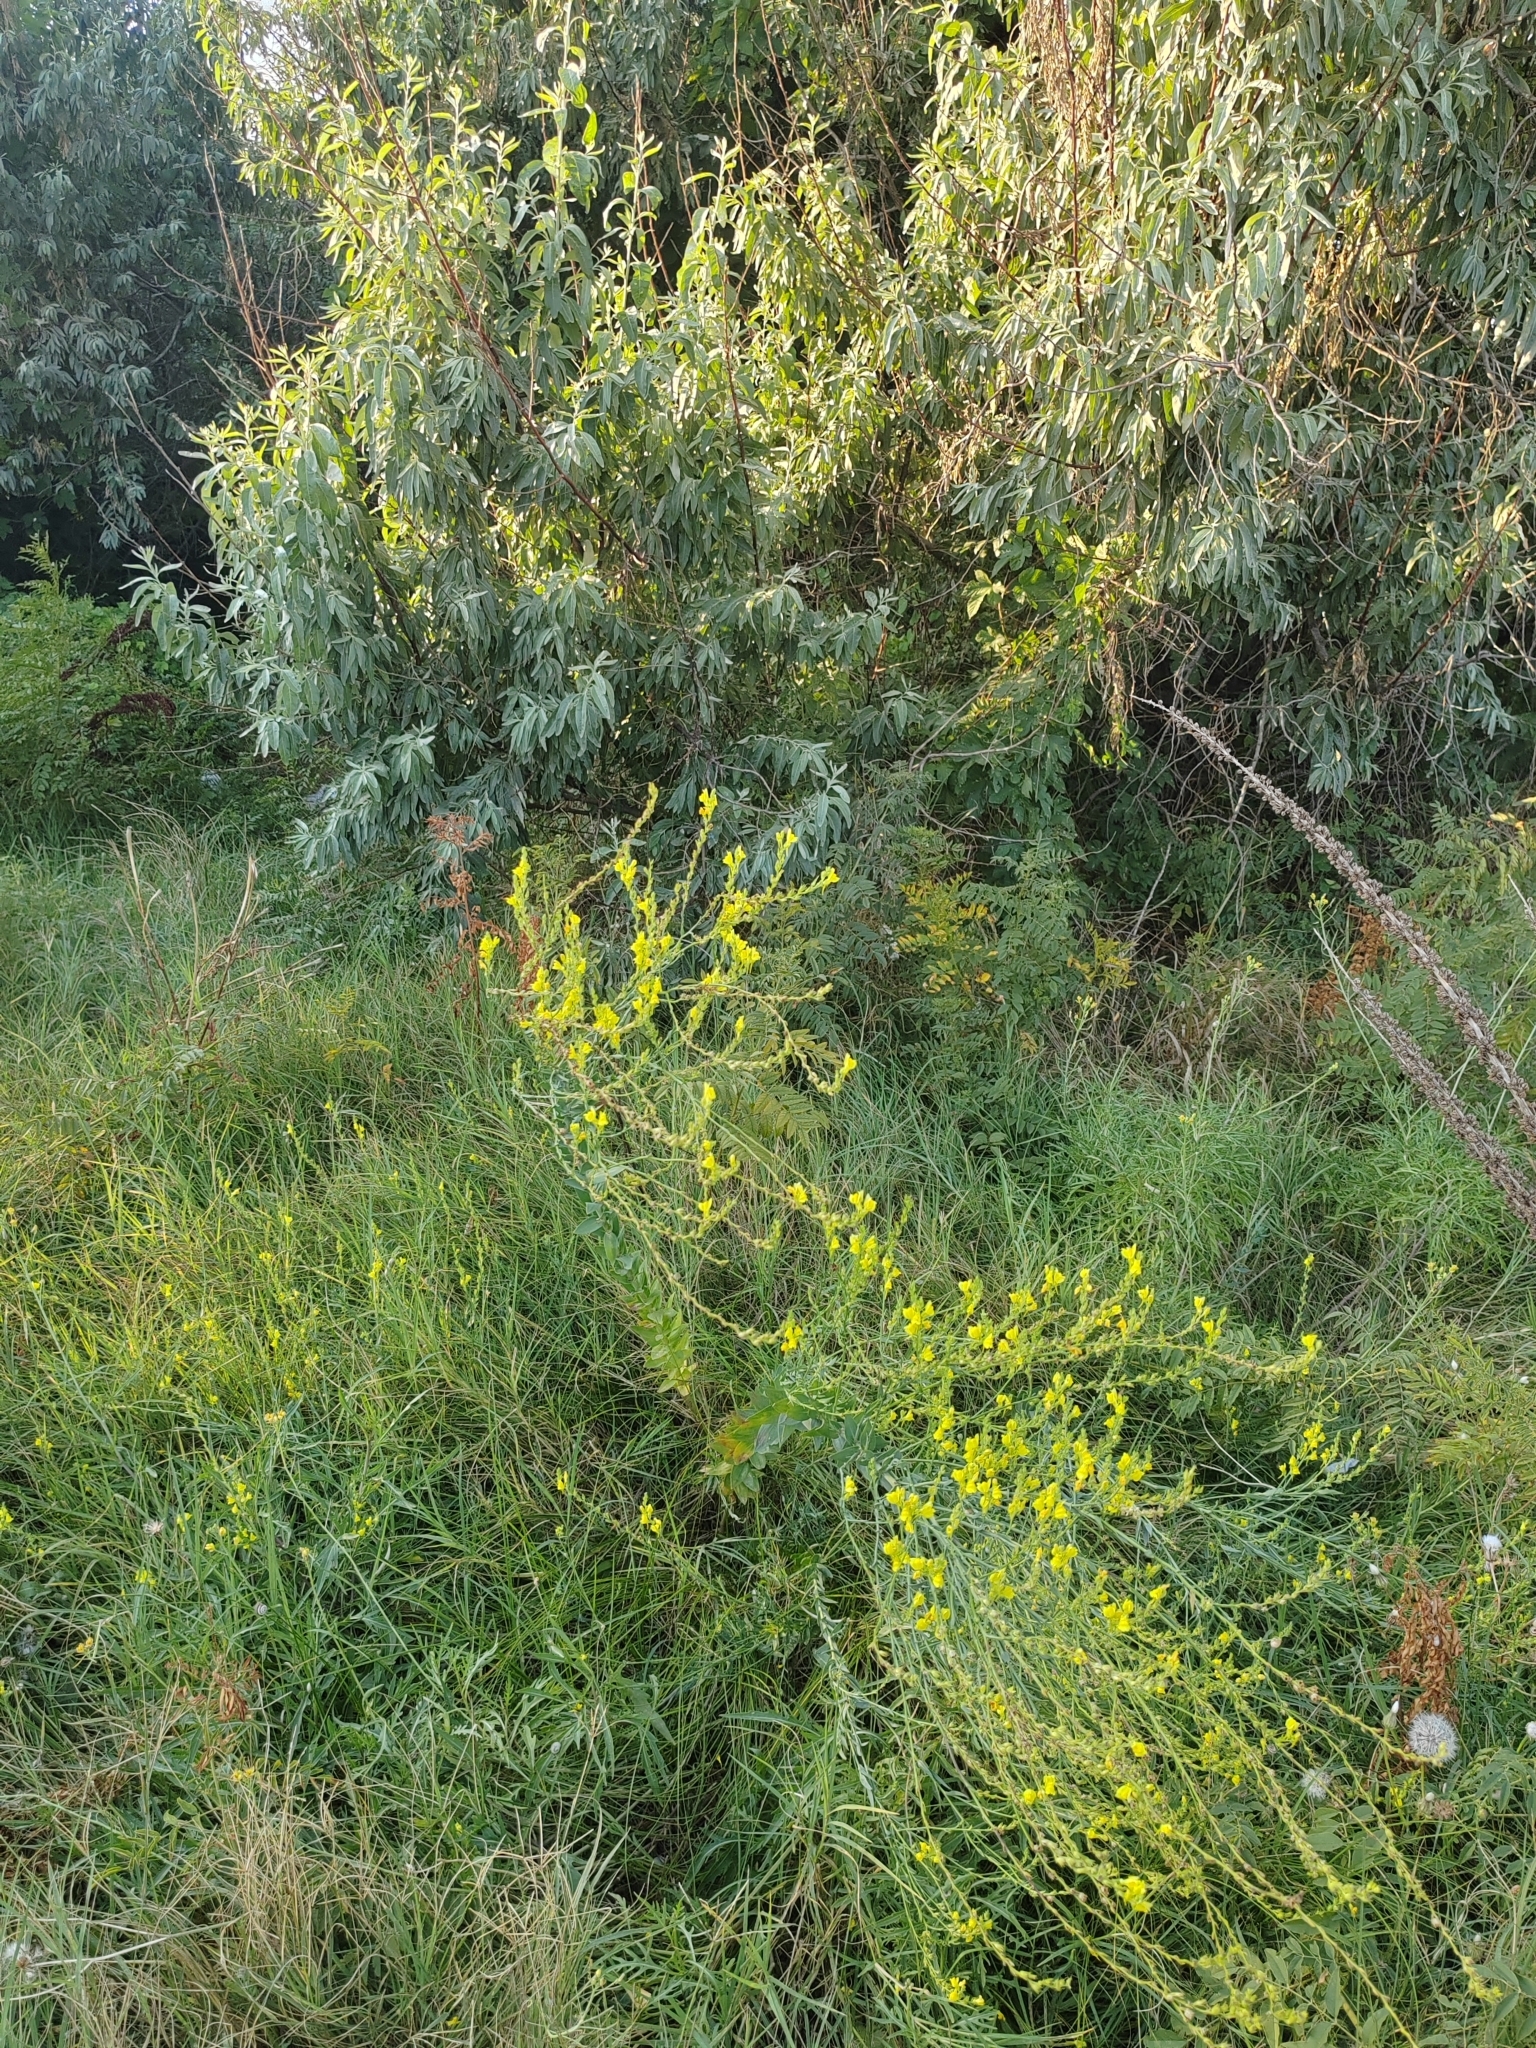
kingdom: Plantae
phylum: Tracheophyta
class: Magnoliopsida
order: Lamiales
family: Plantaginaceae
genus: Linaria
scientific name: Linaria genistifolia
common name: Broomleaf toadflax
